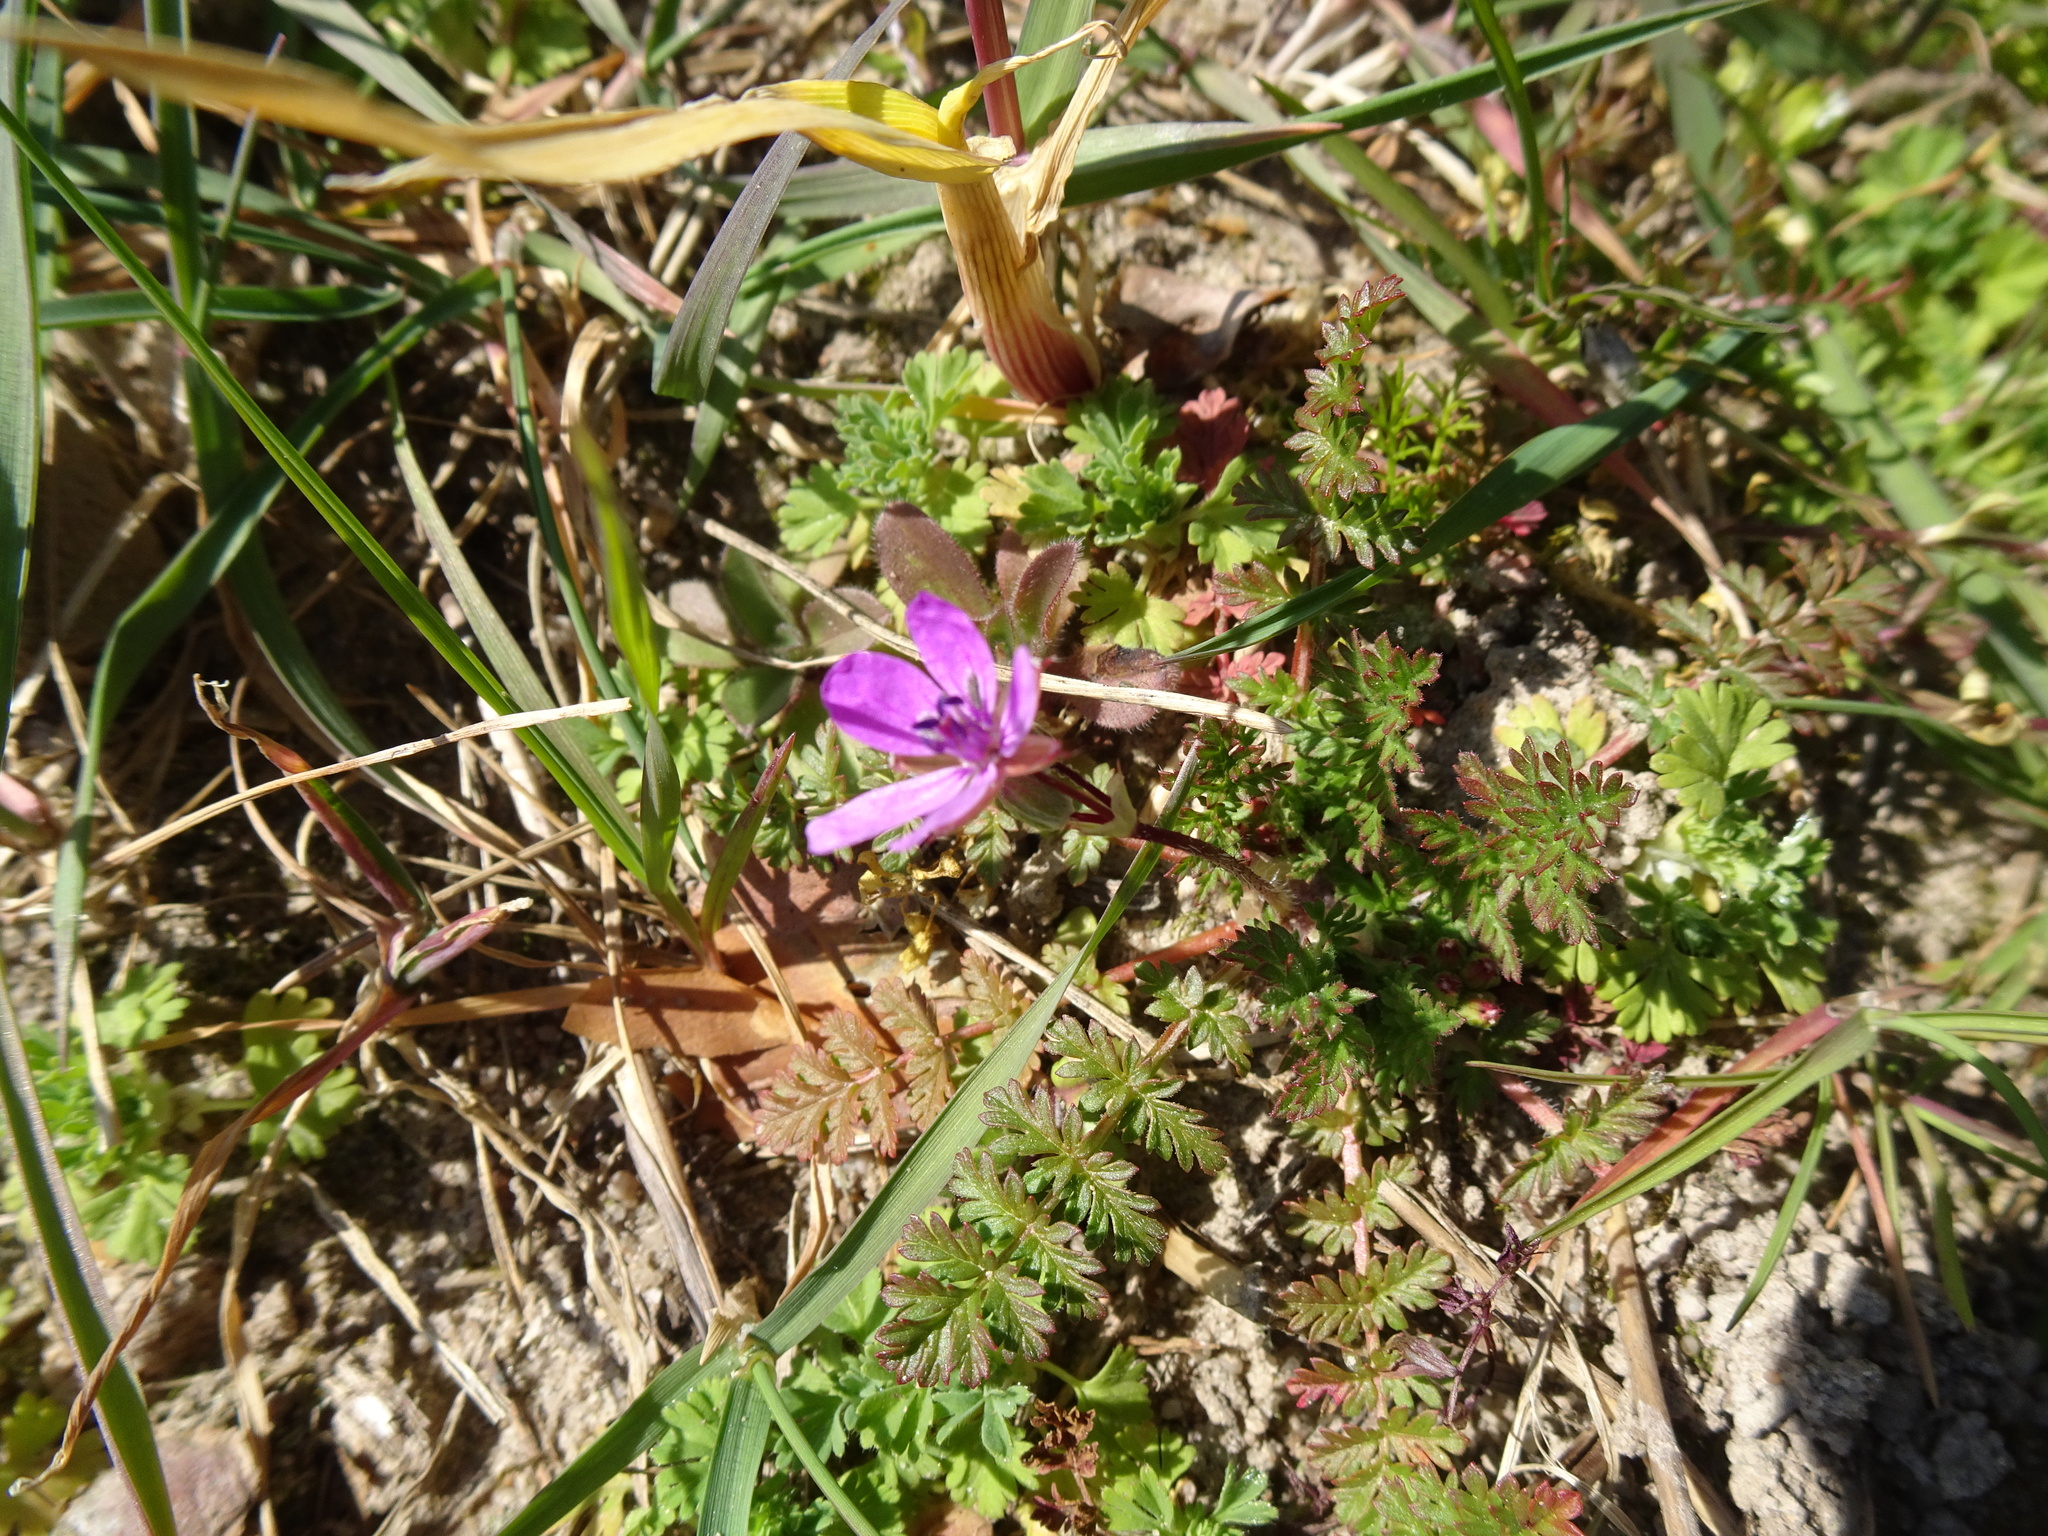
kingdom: Plantae
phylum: Tracheophyta
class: Magnoliopsida
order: Geraniales
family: Geraniaceae
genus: Erodium
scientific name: Erodium cicutarium
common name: Common stork's-bill
